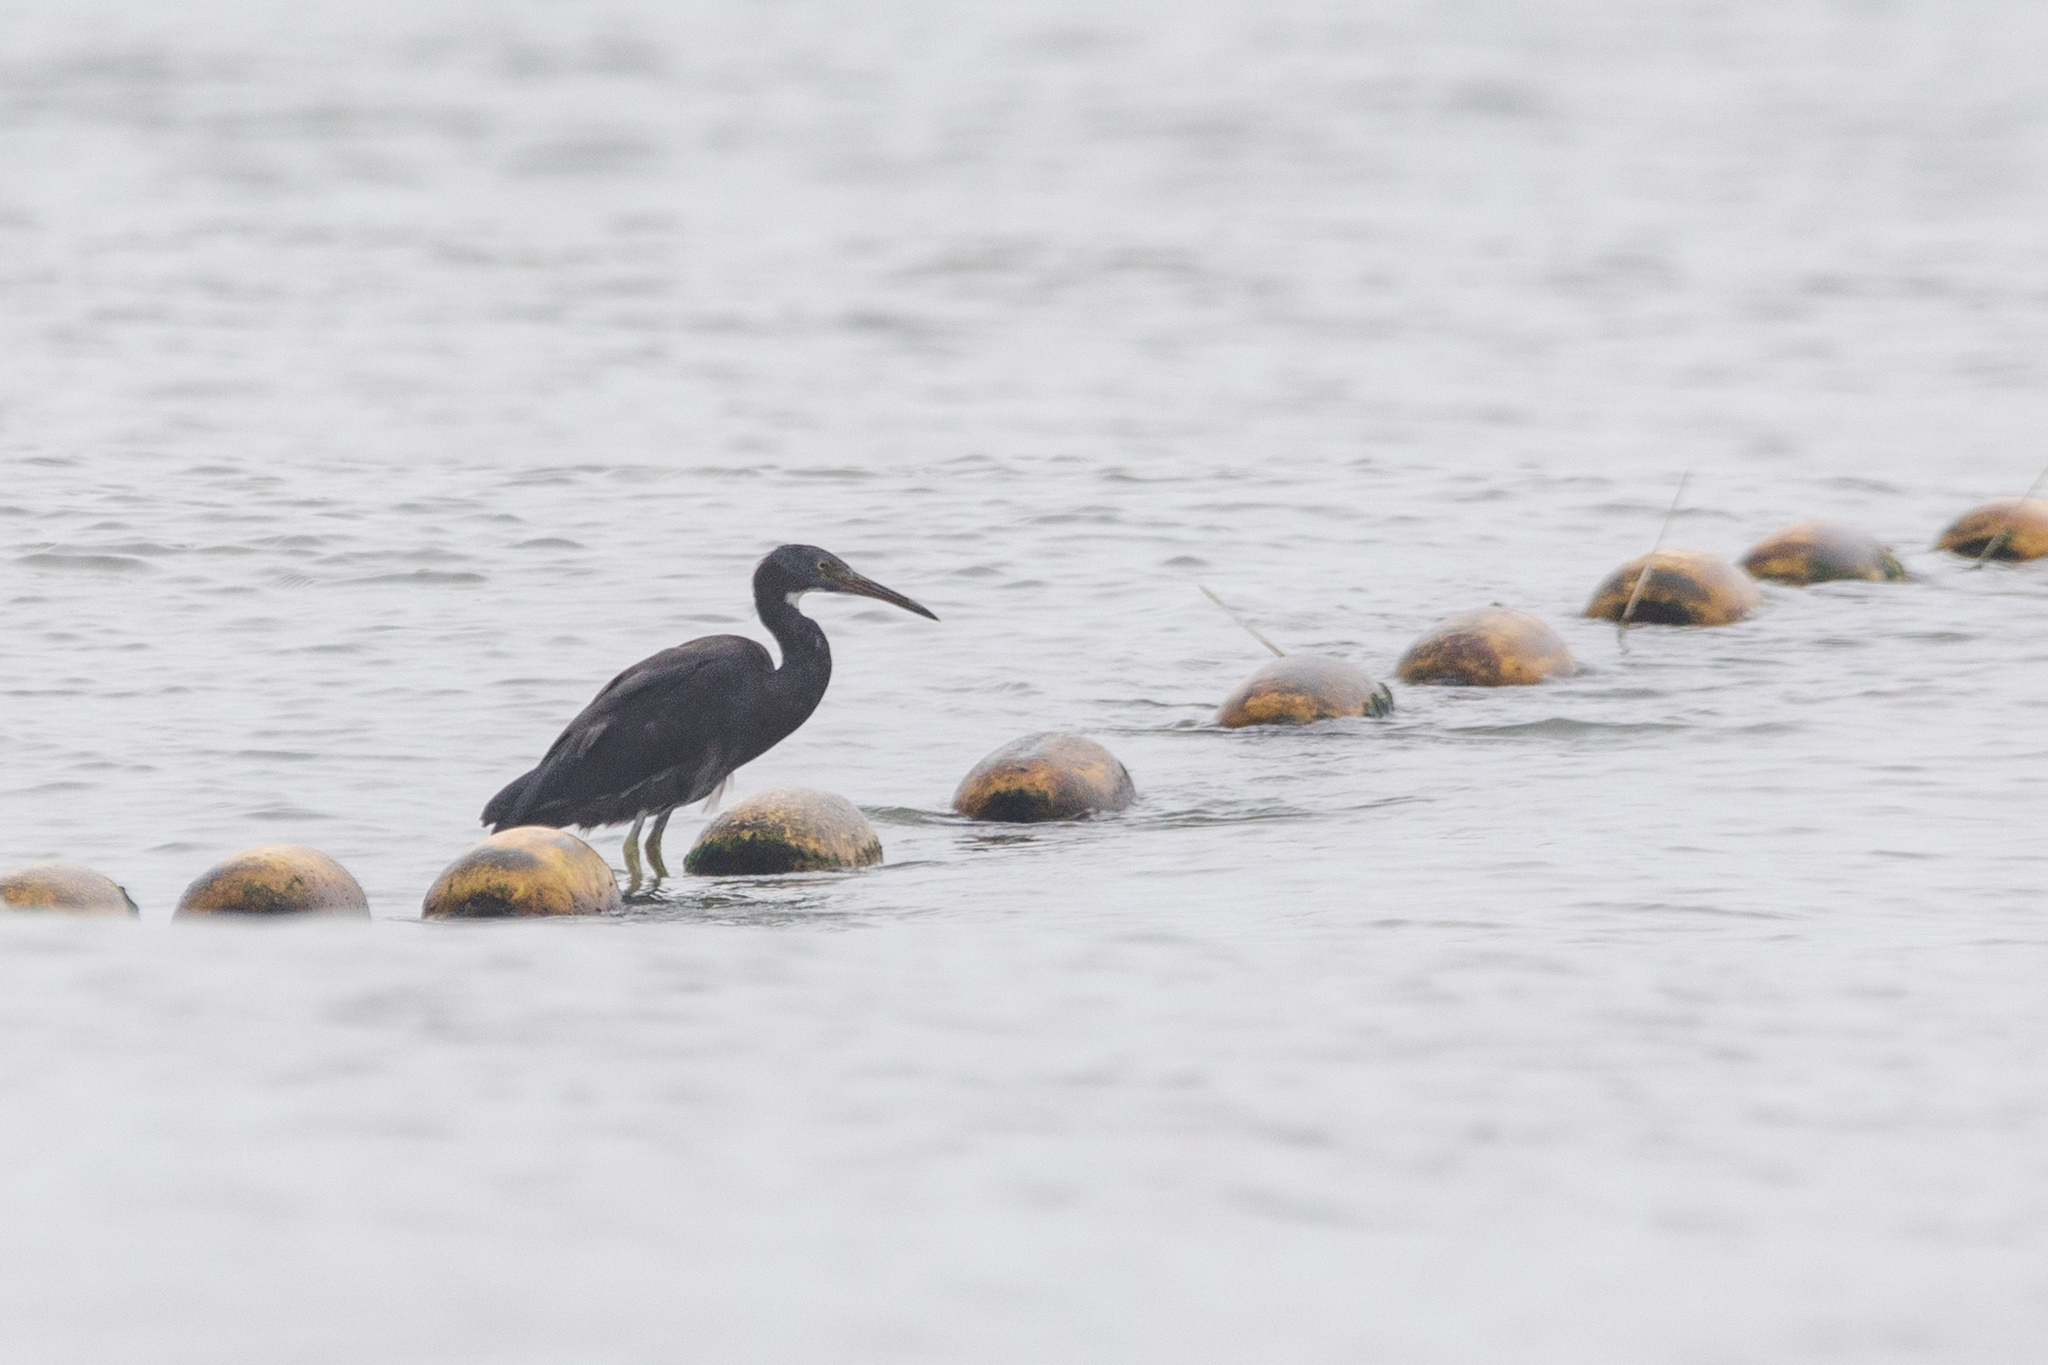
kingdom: Animalia
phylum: Chordata
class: Aves
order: Pelecaniformes
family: Ardeidae
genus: Egretta
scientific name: Egretta sacra
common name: Pacific reef heron
